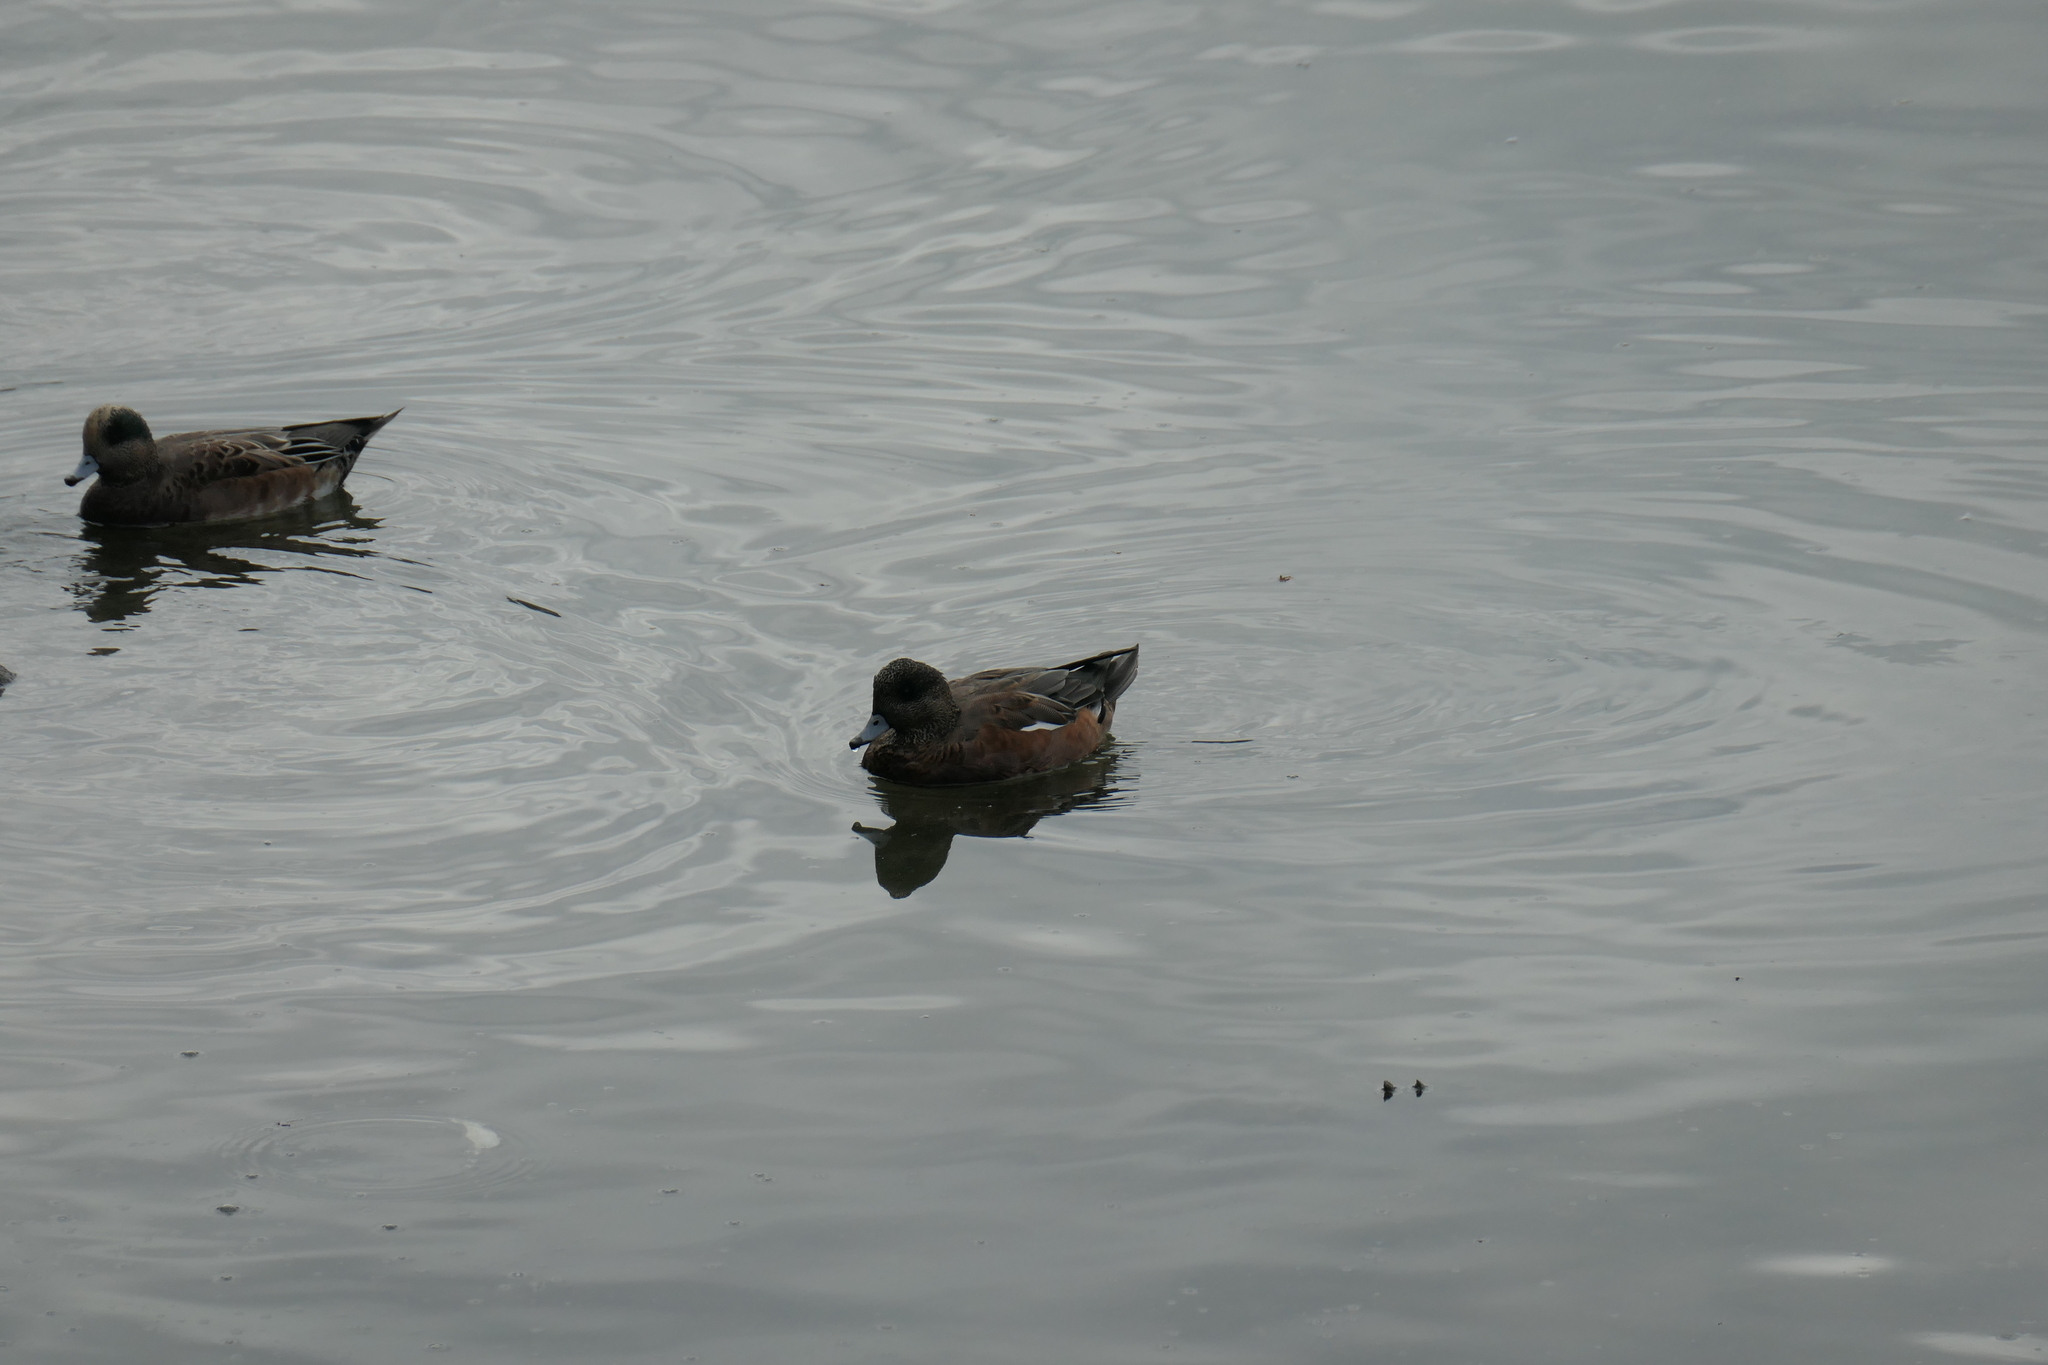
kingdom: Animalia
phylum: Chordata
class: Aves
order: Anseriformes
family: Anatidae
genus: Mareca
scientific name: Mareca americana
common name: American wigeon
